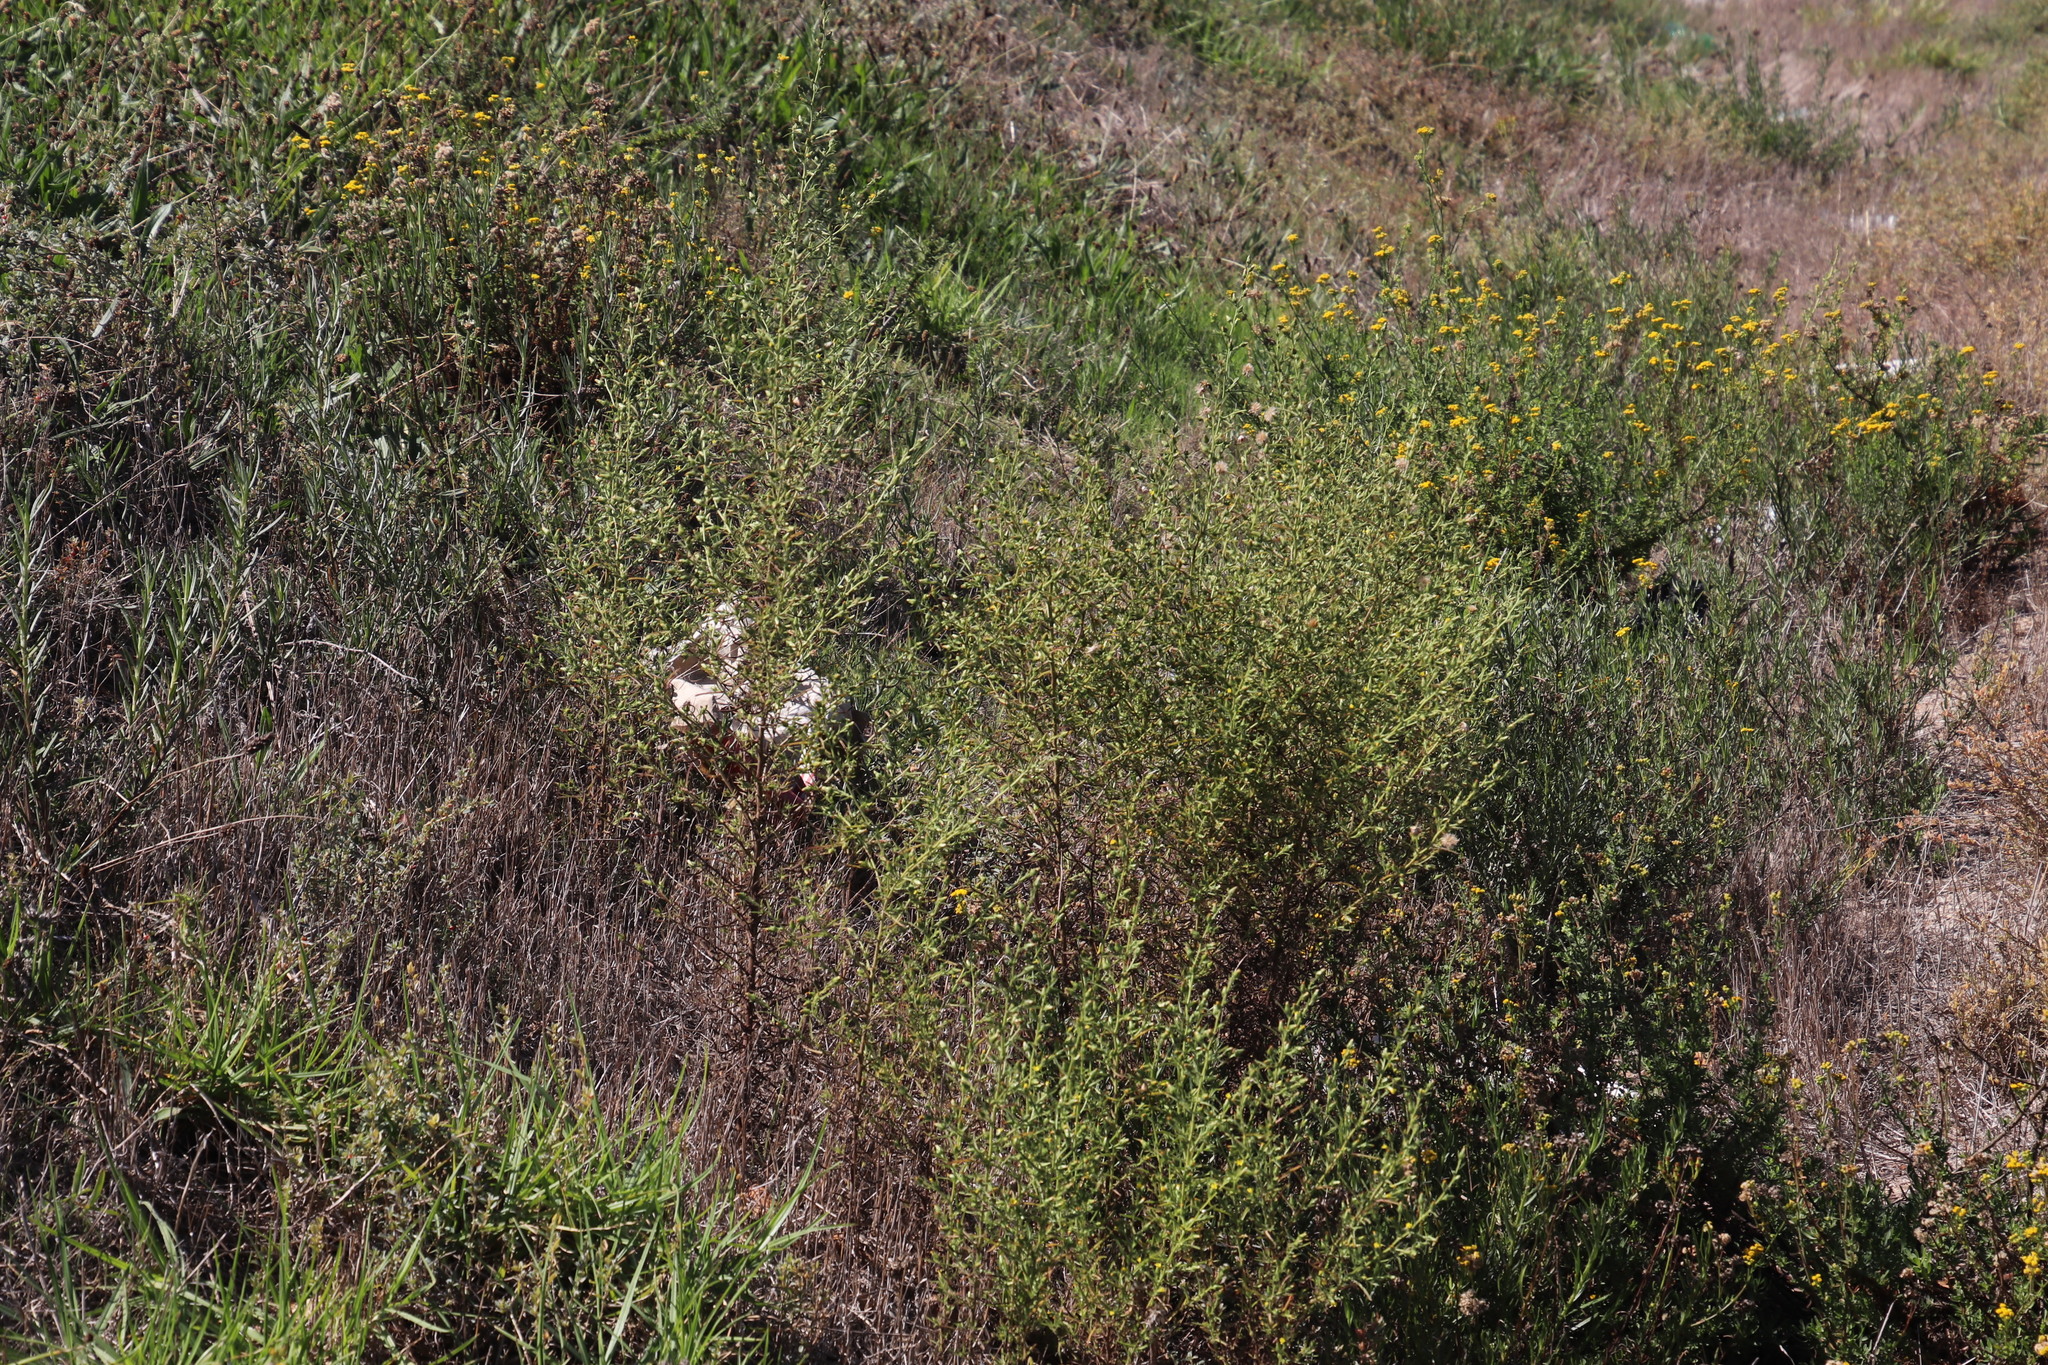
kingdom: Plantae
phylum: Tracheophyta
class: Magnoliopsida
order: Asterales
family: Asteraceae
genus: Nidorella
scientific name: Nidorella foetida
